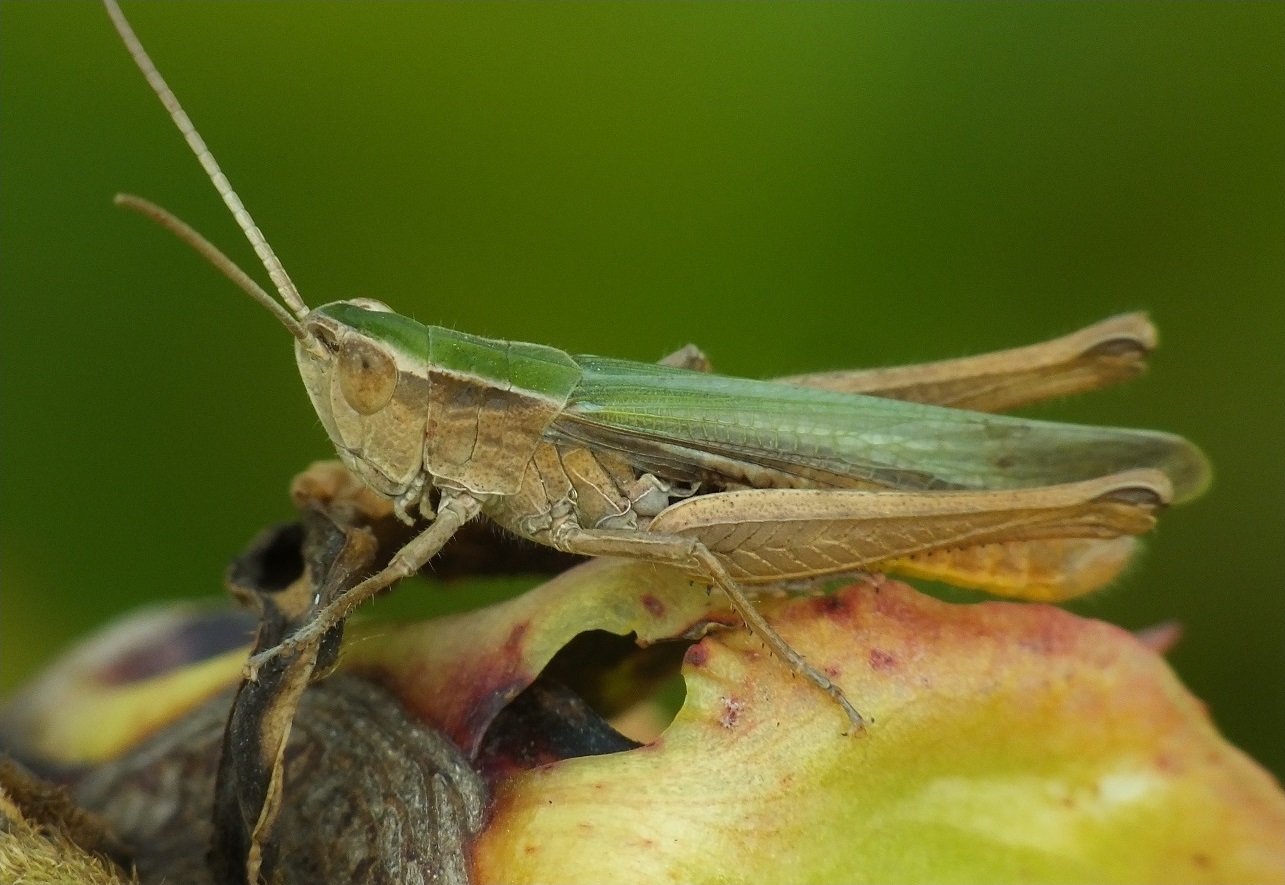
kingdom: Animalia
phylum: Arthropoda
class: Insecta
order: Orthoptera
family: Acrididae
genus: Chorthippus
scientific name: Chorthippus karelini
